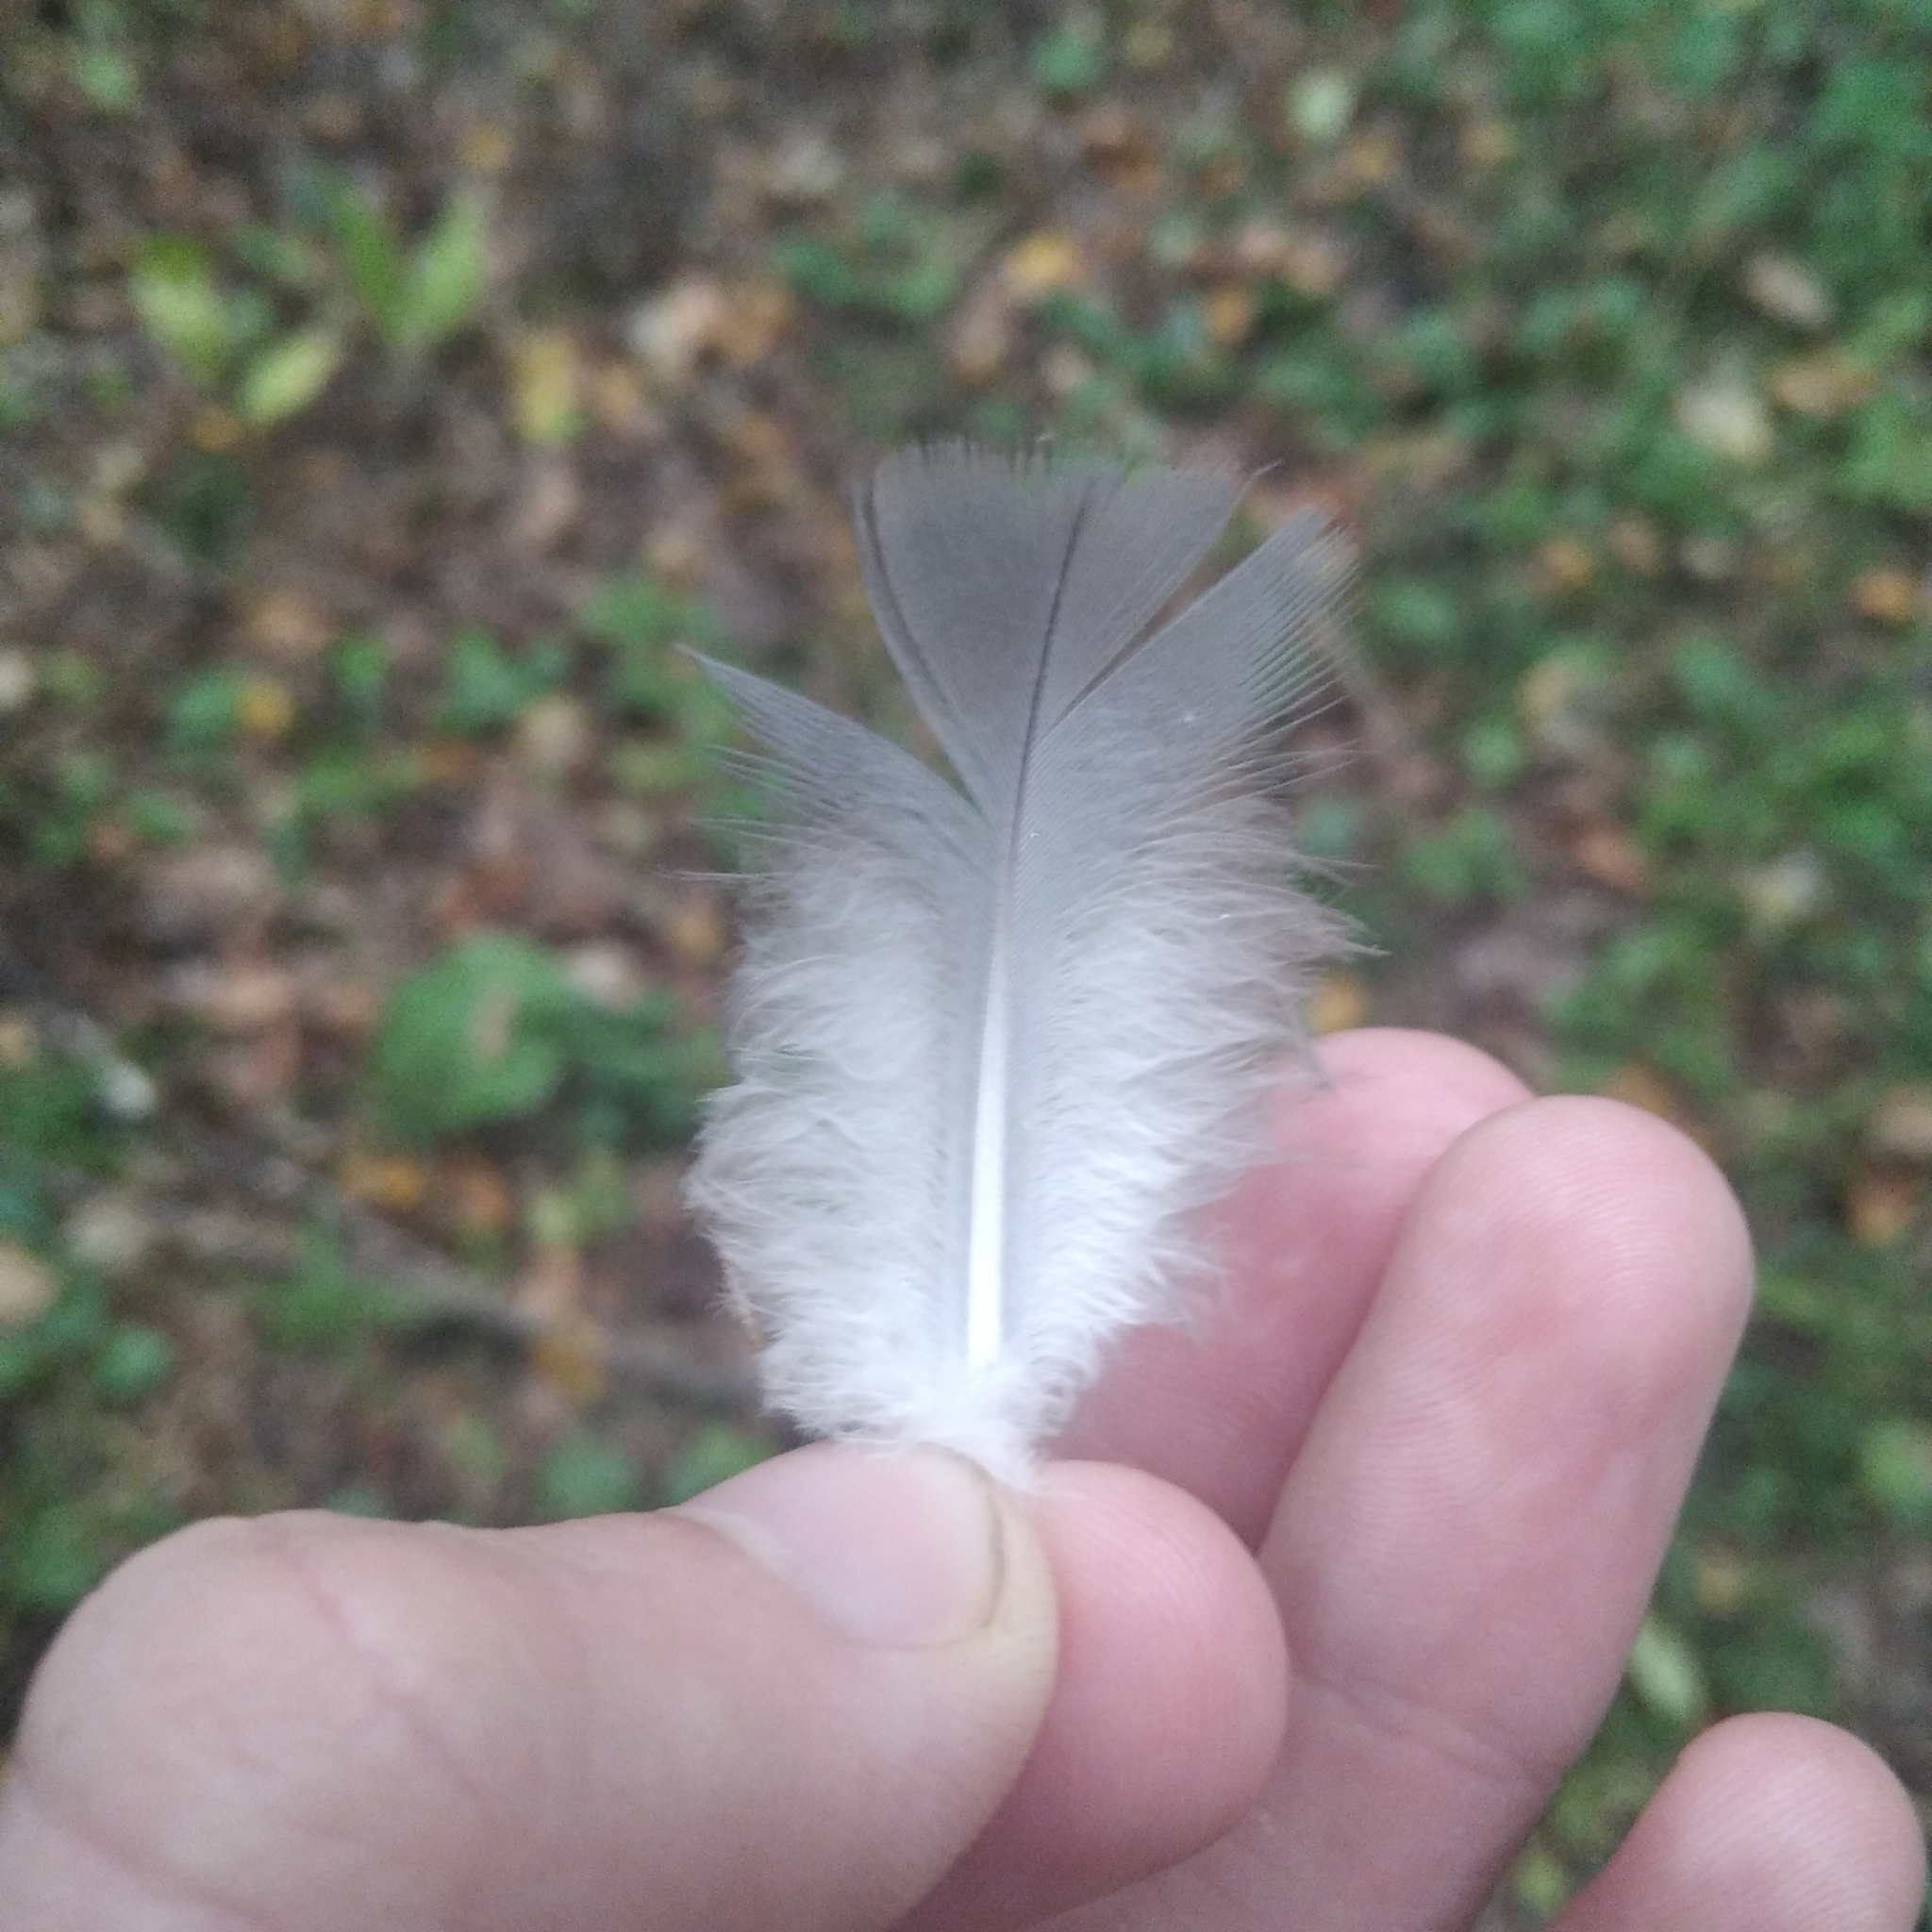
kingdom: Animalia
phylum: Chordata
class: Aves
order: Columbiformes
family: Columbidae
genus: Columba
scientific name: Columba
